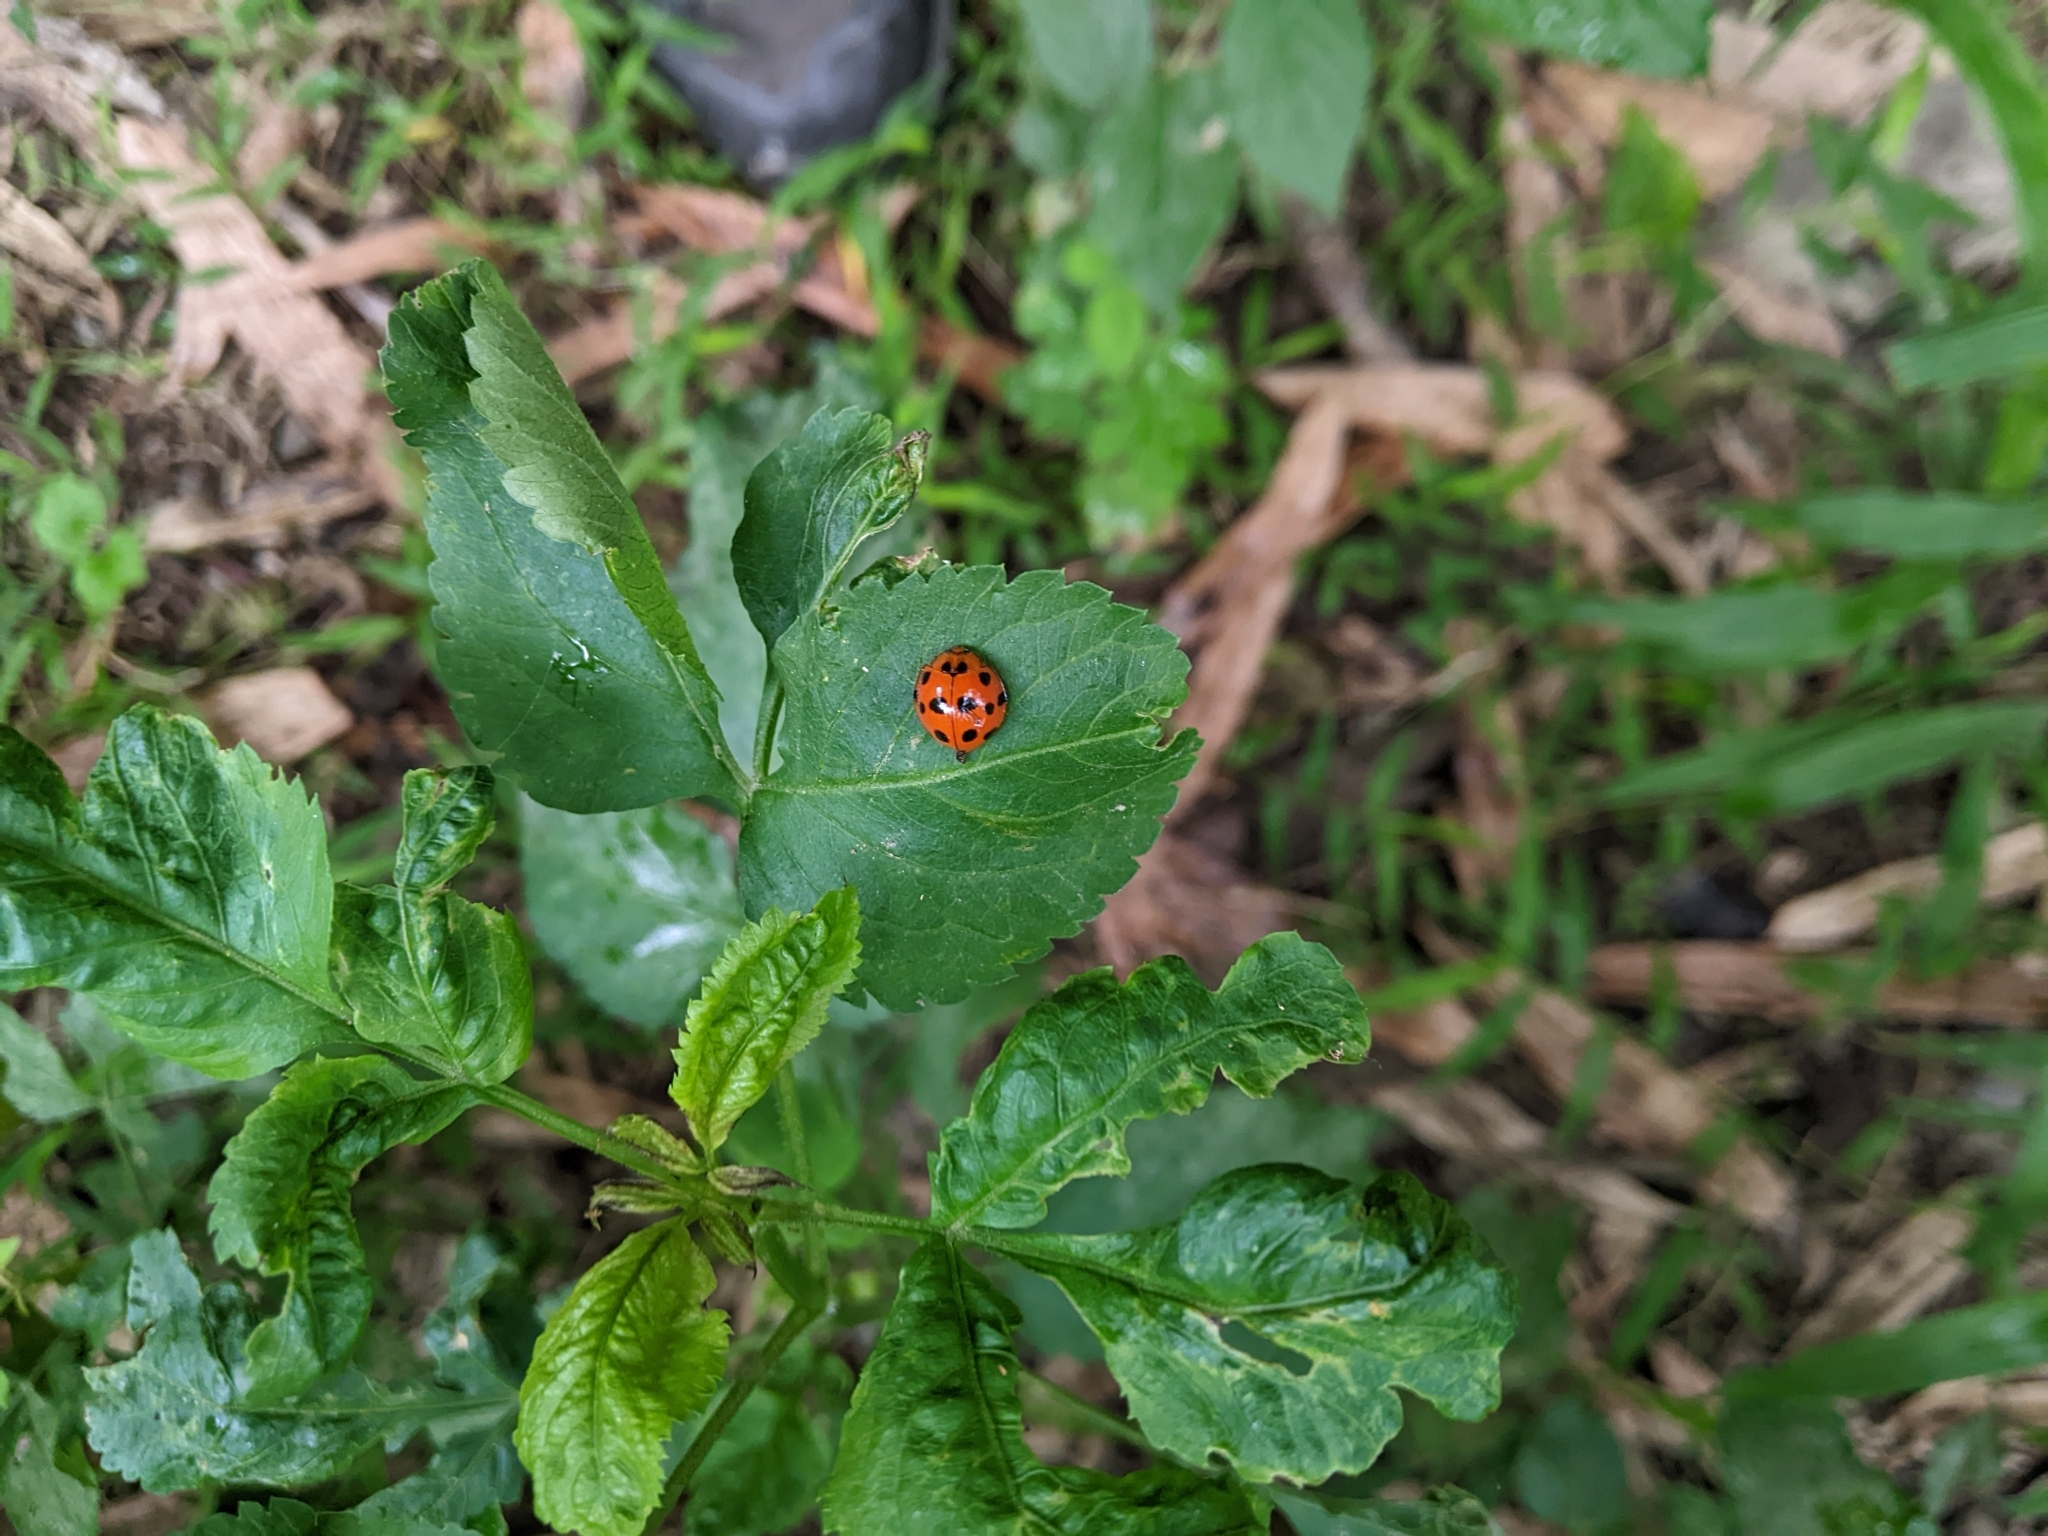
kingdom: Animalia
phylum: Arthropoda
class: Insecta
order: Coleoptera
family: Coccinellidae
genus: Harmonia
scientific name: Harmonia dimidiata
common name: Ladybird beetle
